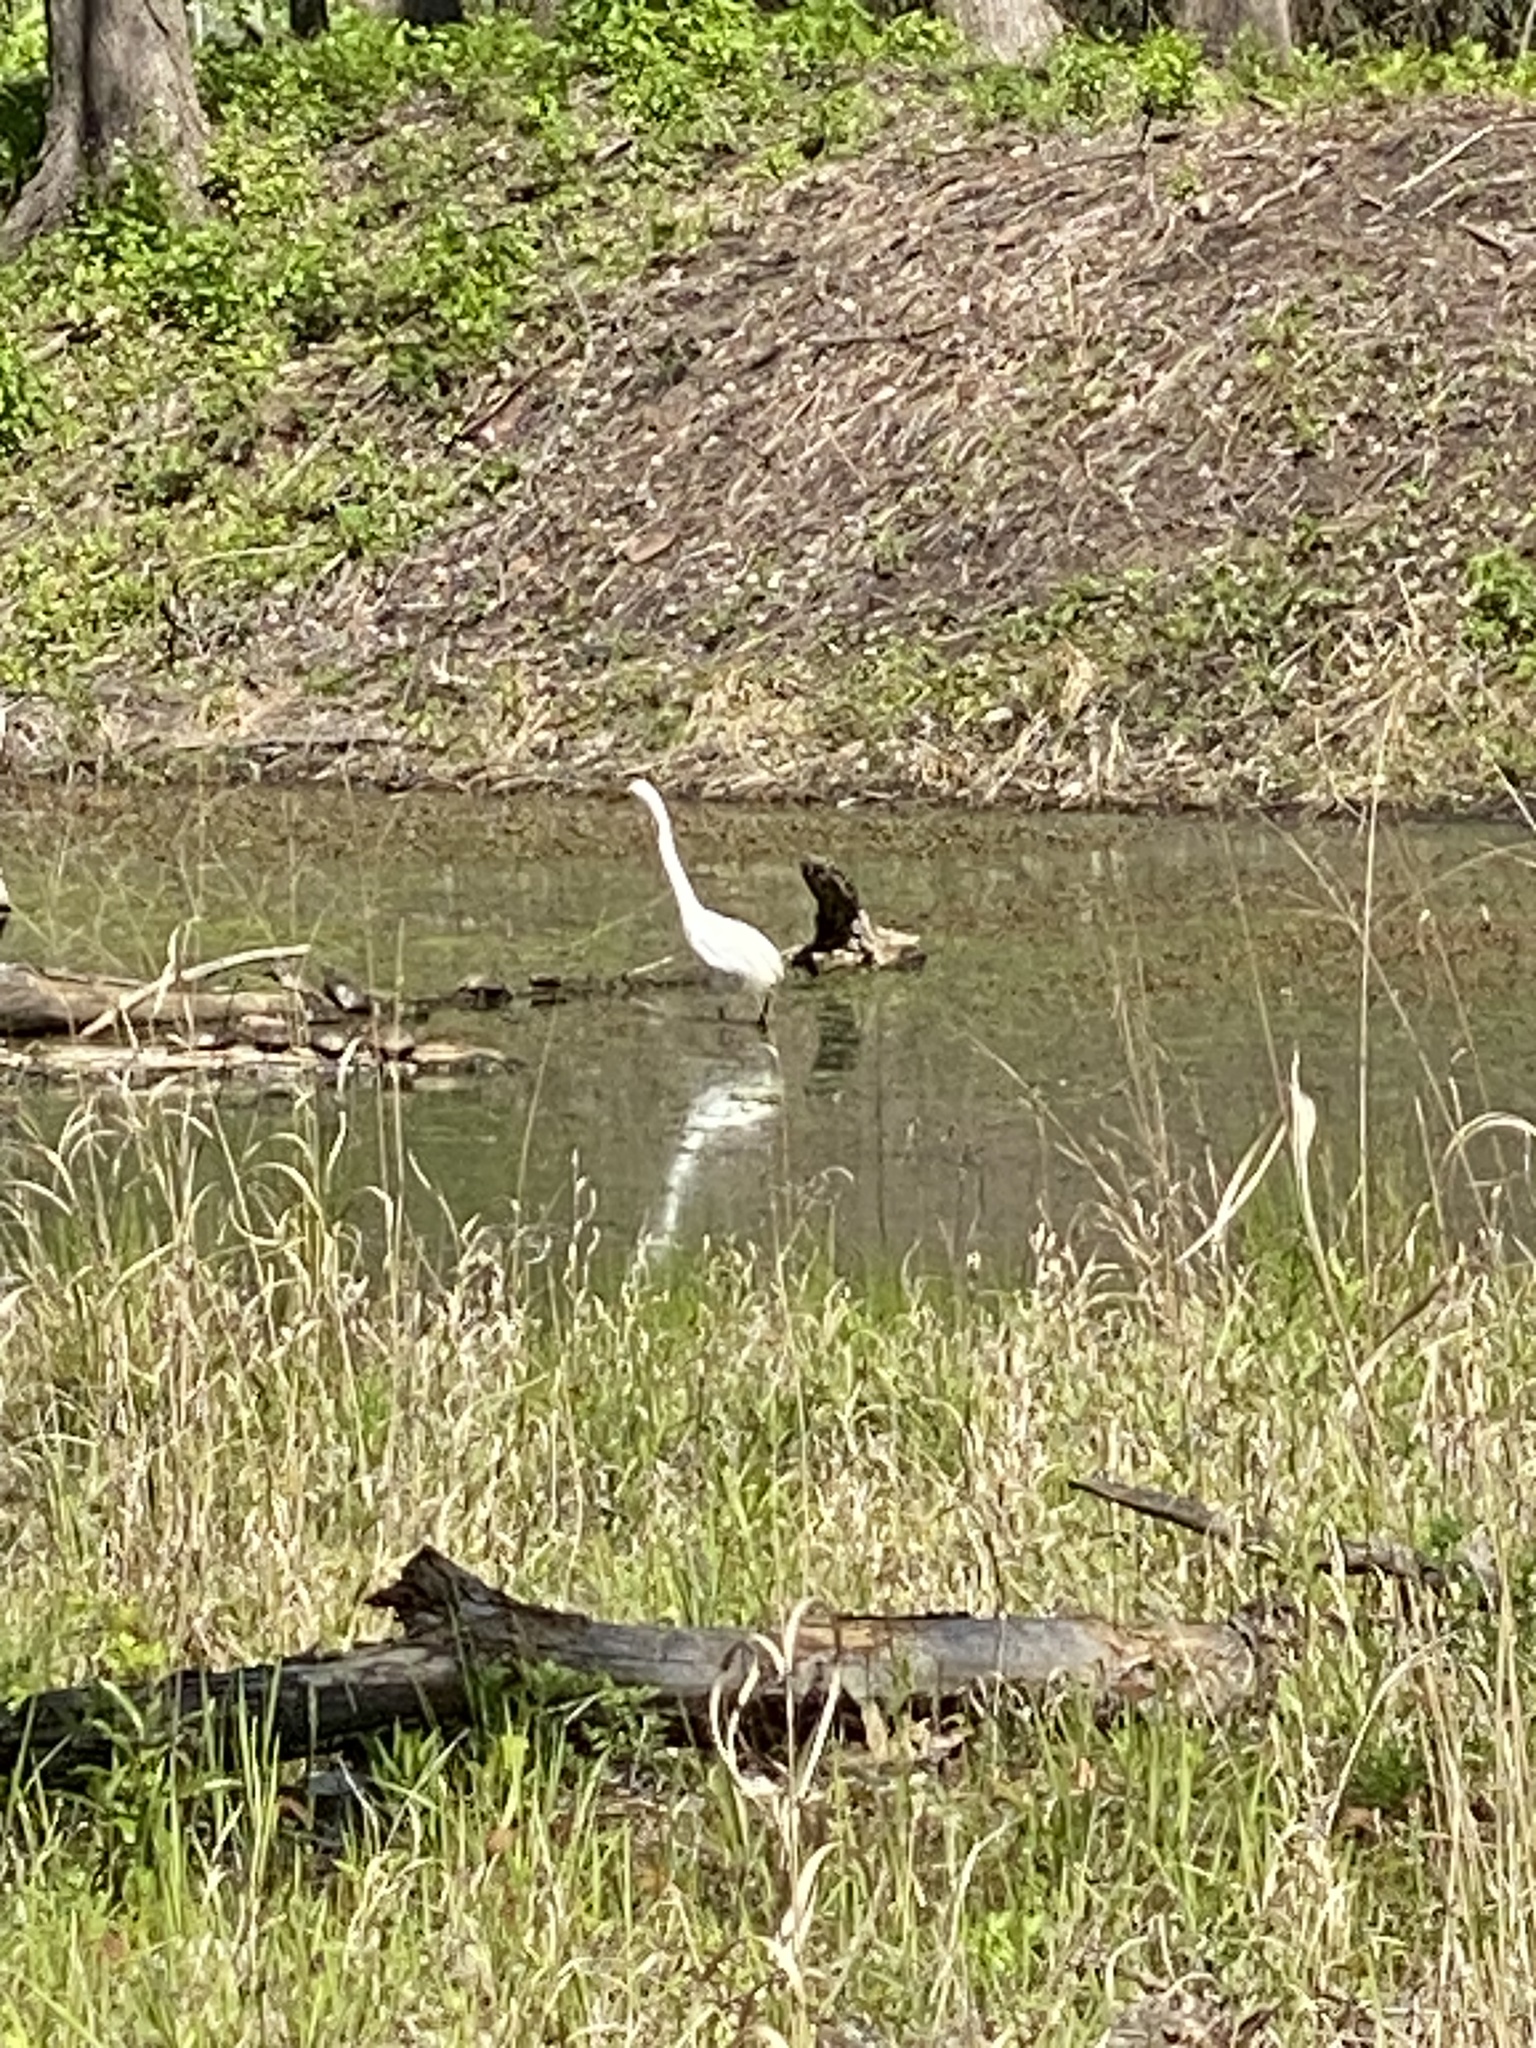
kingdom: Animalia
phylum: Chordata
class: Aves
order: Pelecaniformes
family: Ardeidae
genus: Ardea
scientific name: Ardea alba
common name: Great egret
